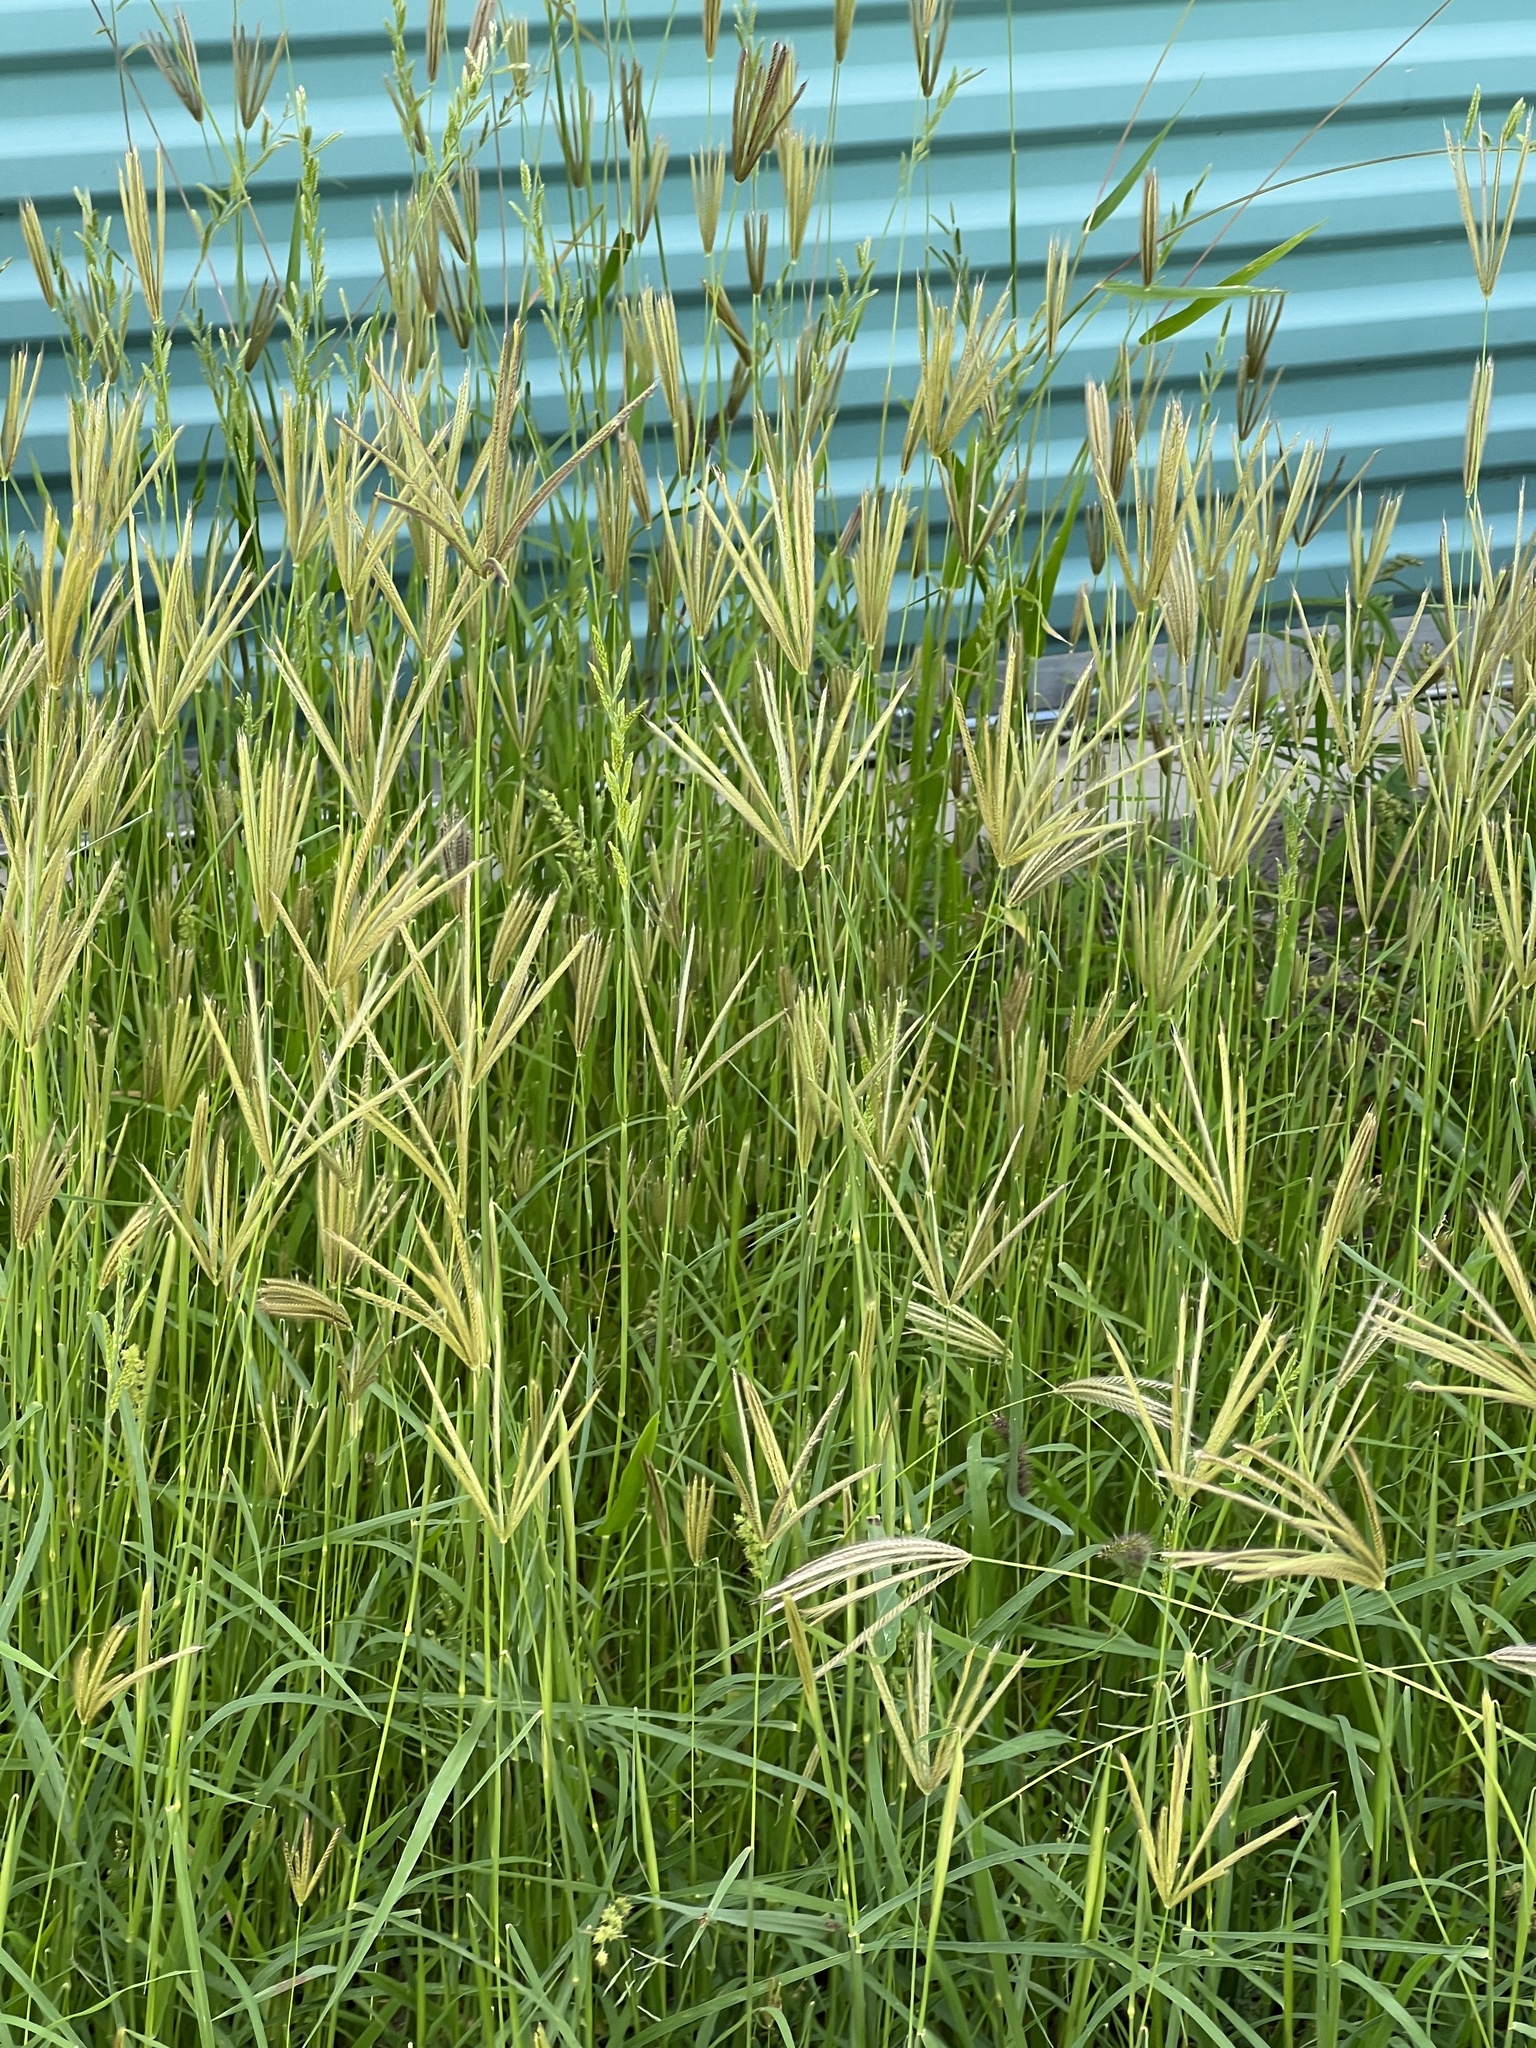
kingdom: Plantae
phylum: Tracheophyta
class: Liliopsida
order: Poales
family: Poaceae
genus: Chloris
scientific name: Chloris virgata
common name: Feathery rhodes-grass
